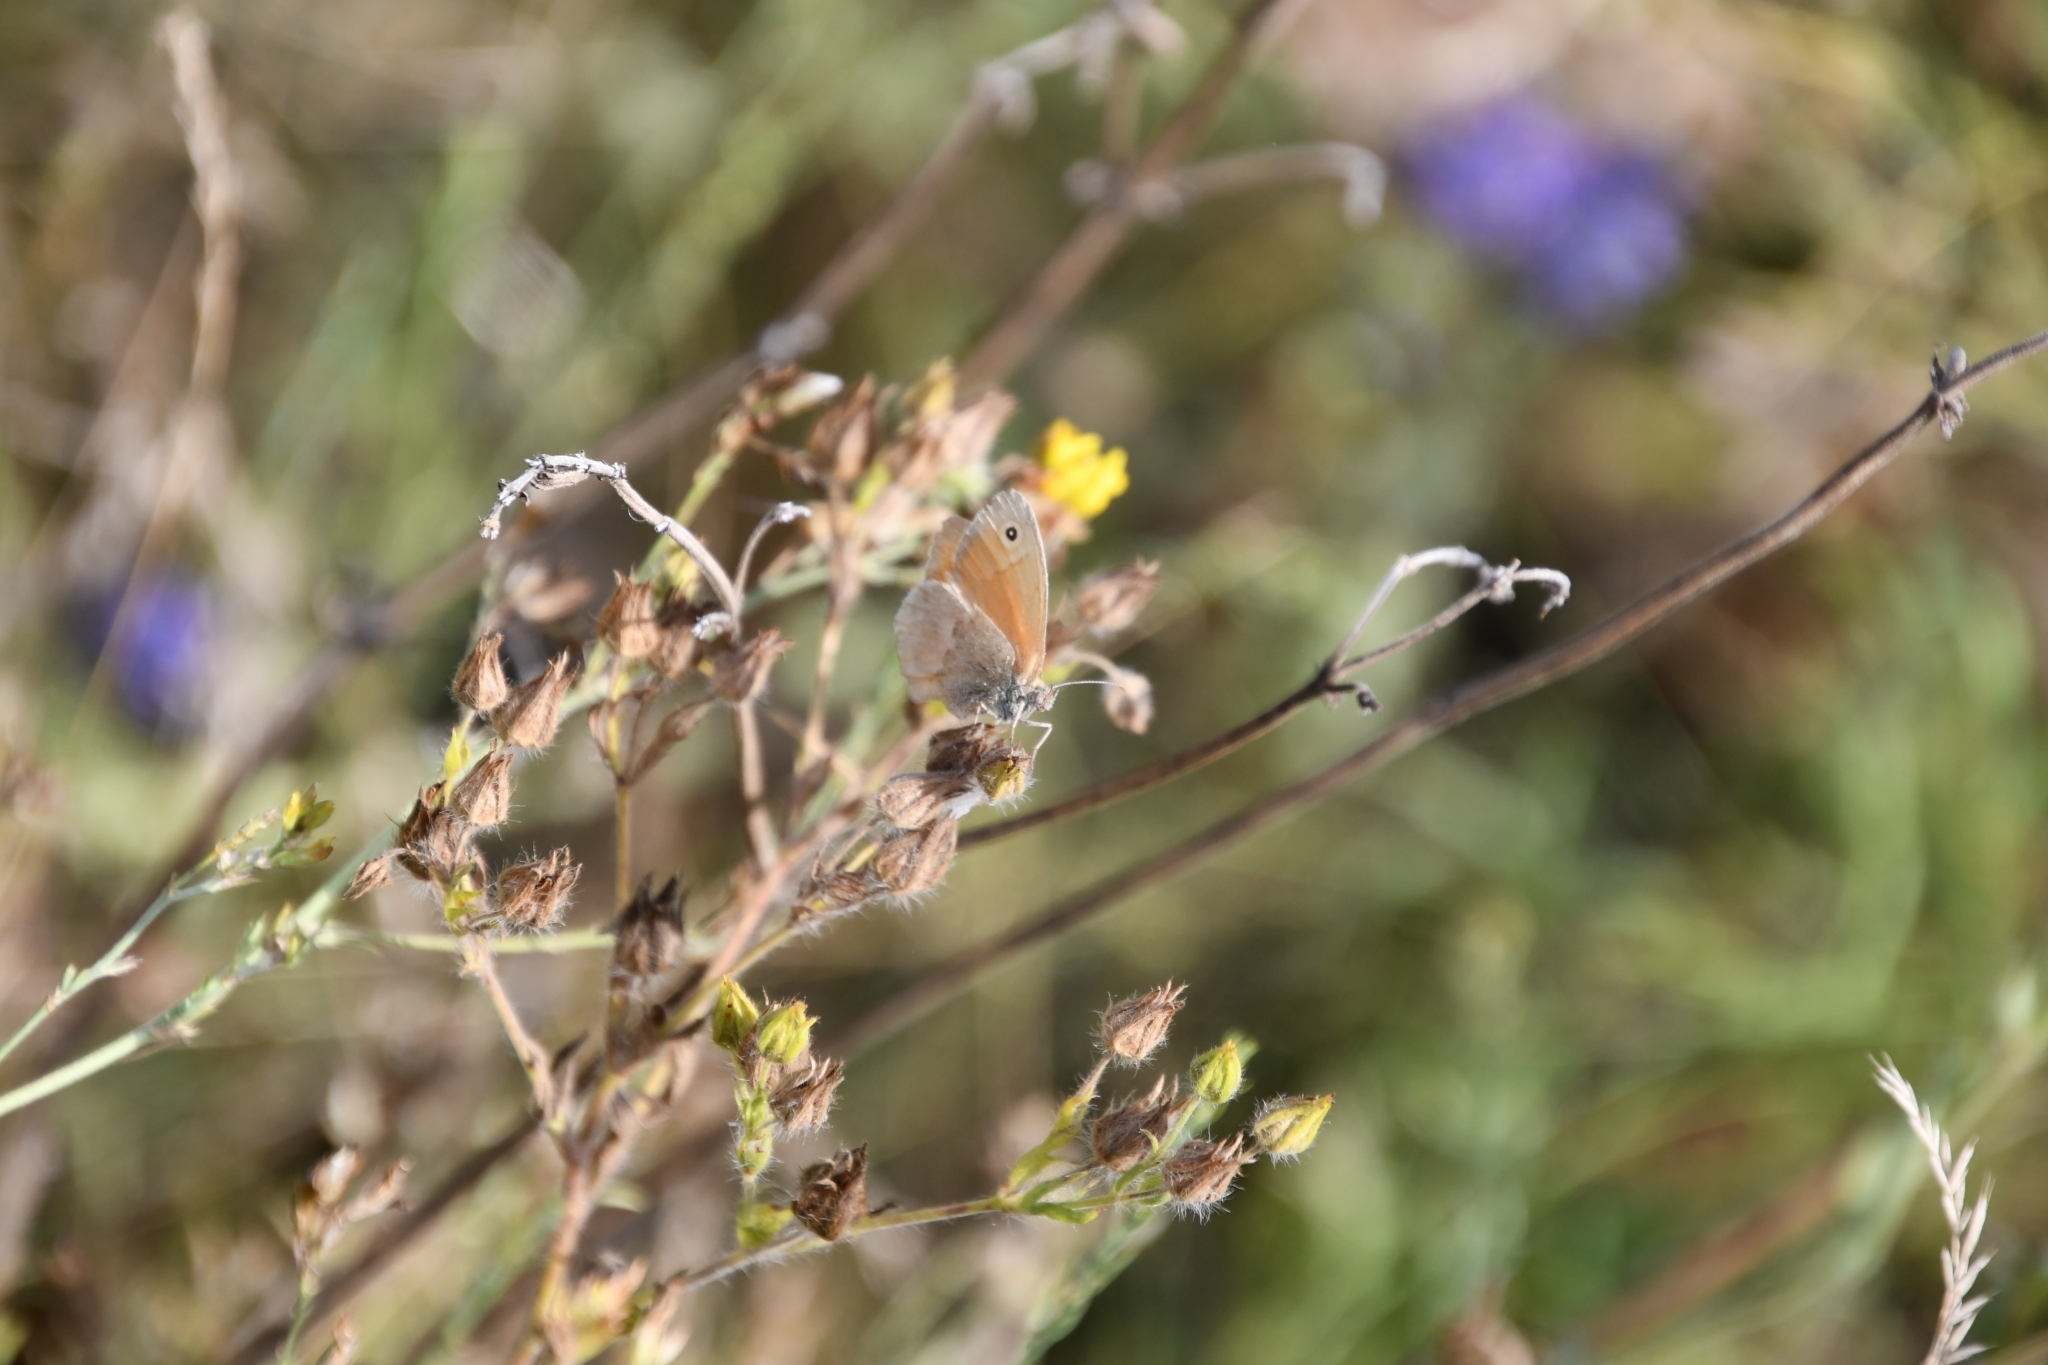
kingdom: Animalia
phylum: Arthropoda
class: Insecta
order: Lepidoptera
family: Nymphalidae
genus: Coenonympha
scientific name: Coenonympha pamphilus
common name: Small heath
